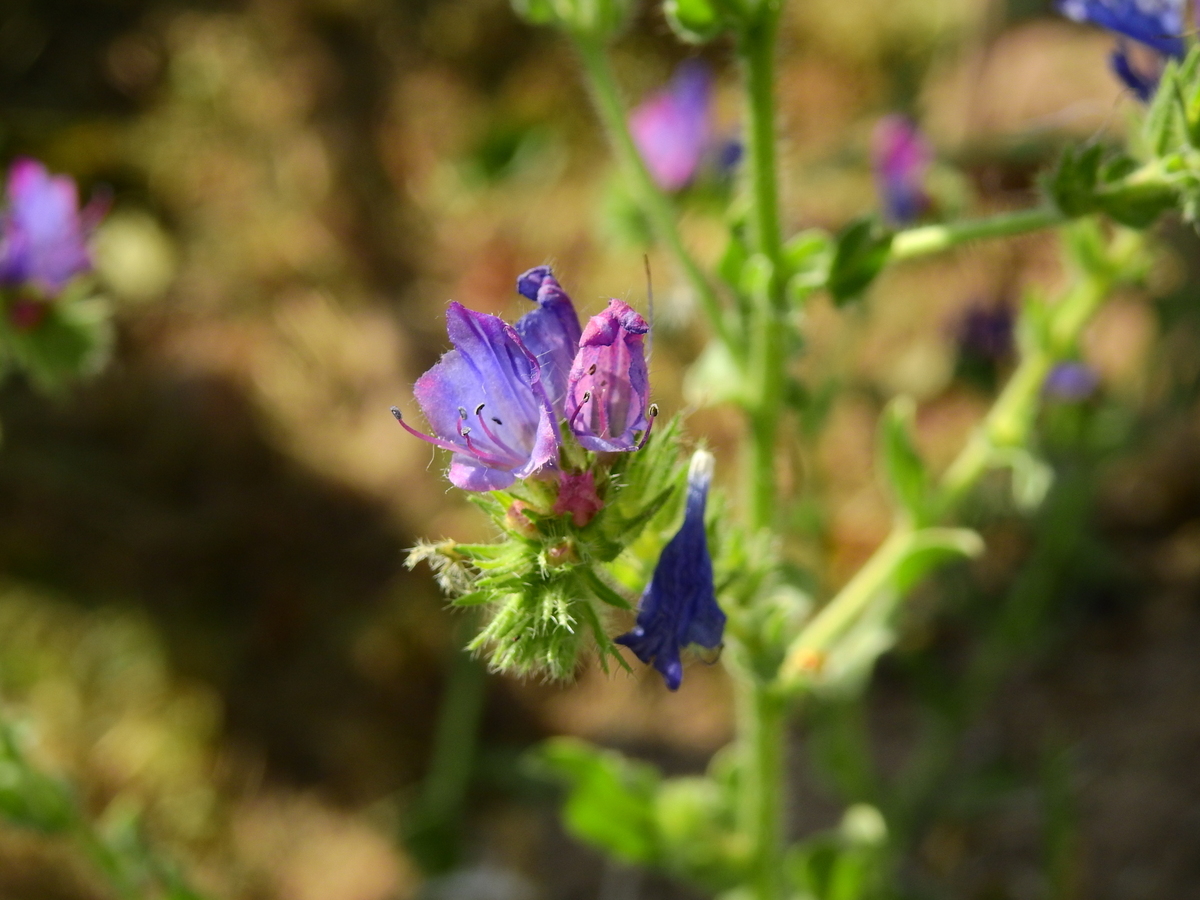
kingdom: Plantae
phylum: Tracheophyta
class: Magnoliopsida
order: Boraginales
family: Boraginaceae
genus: Echium
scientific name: Echium plantagineum
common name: Purple viper's-bugloss
